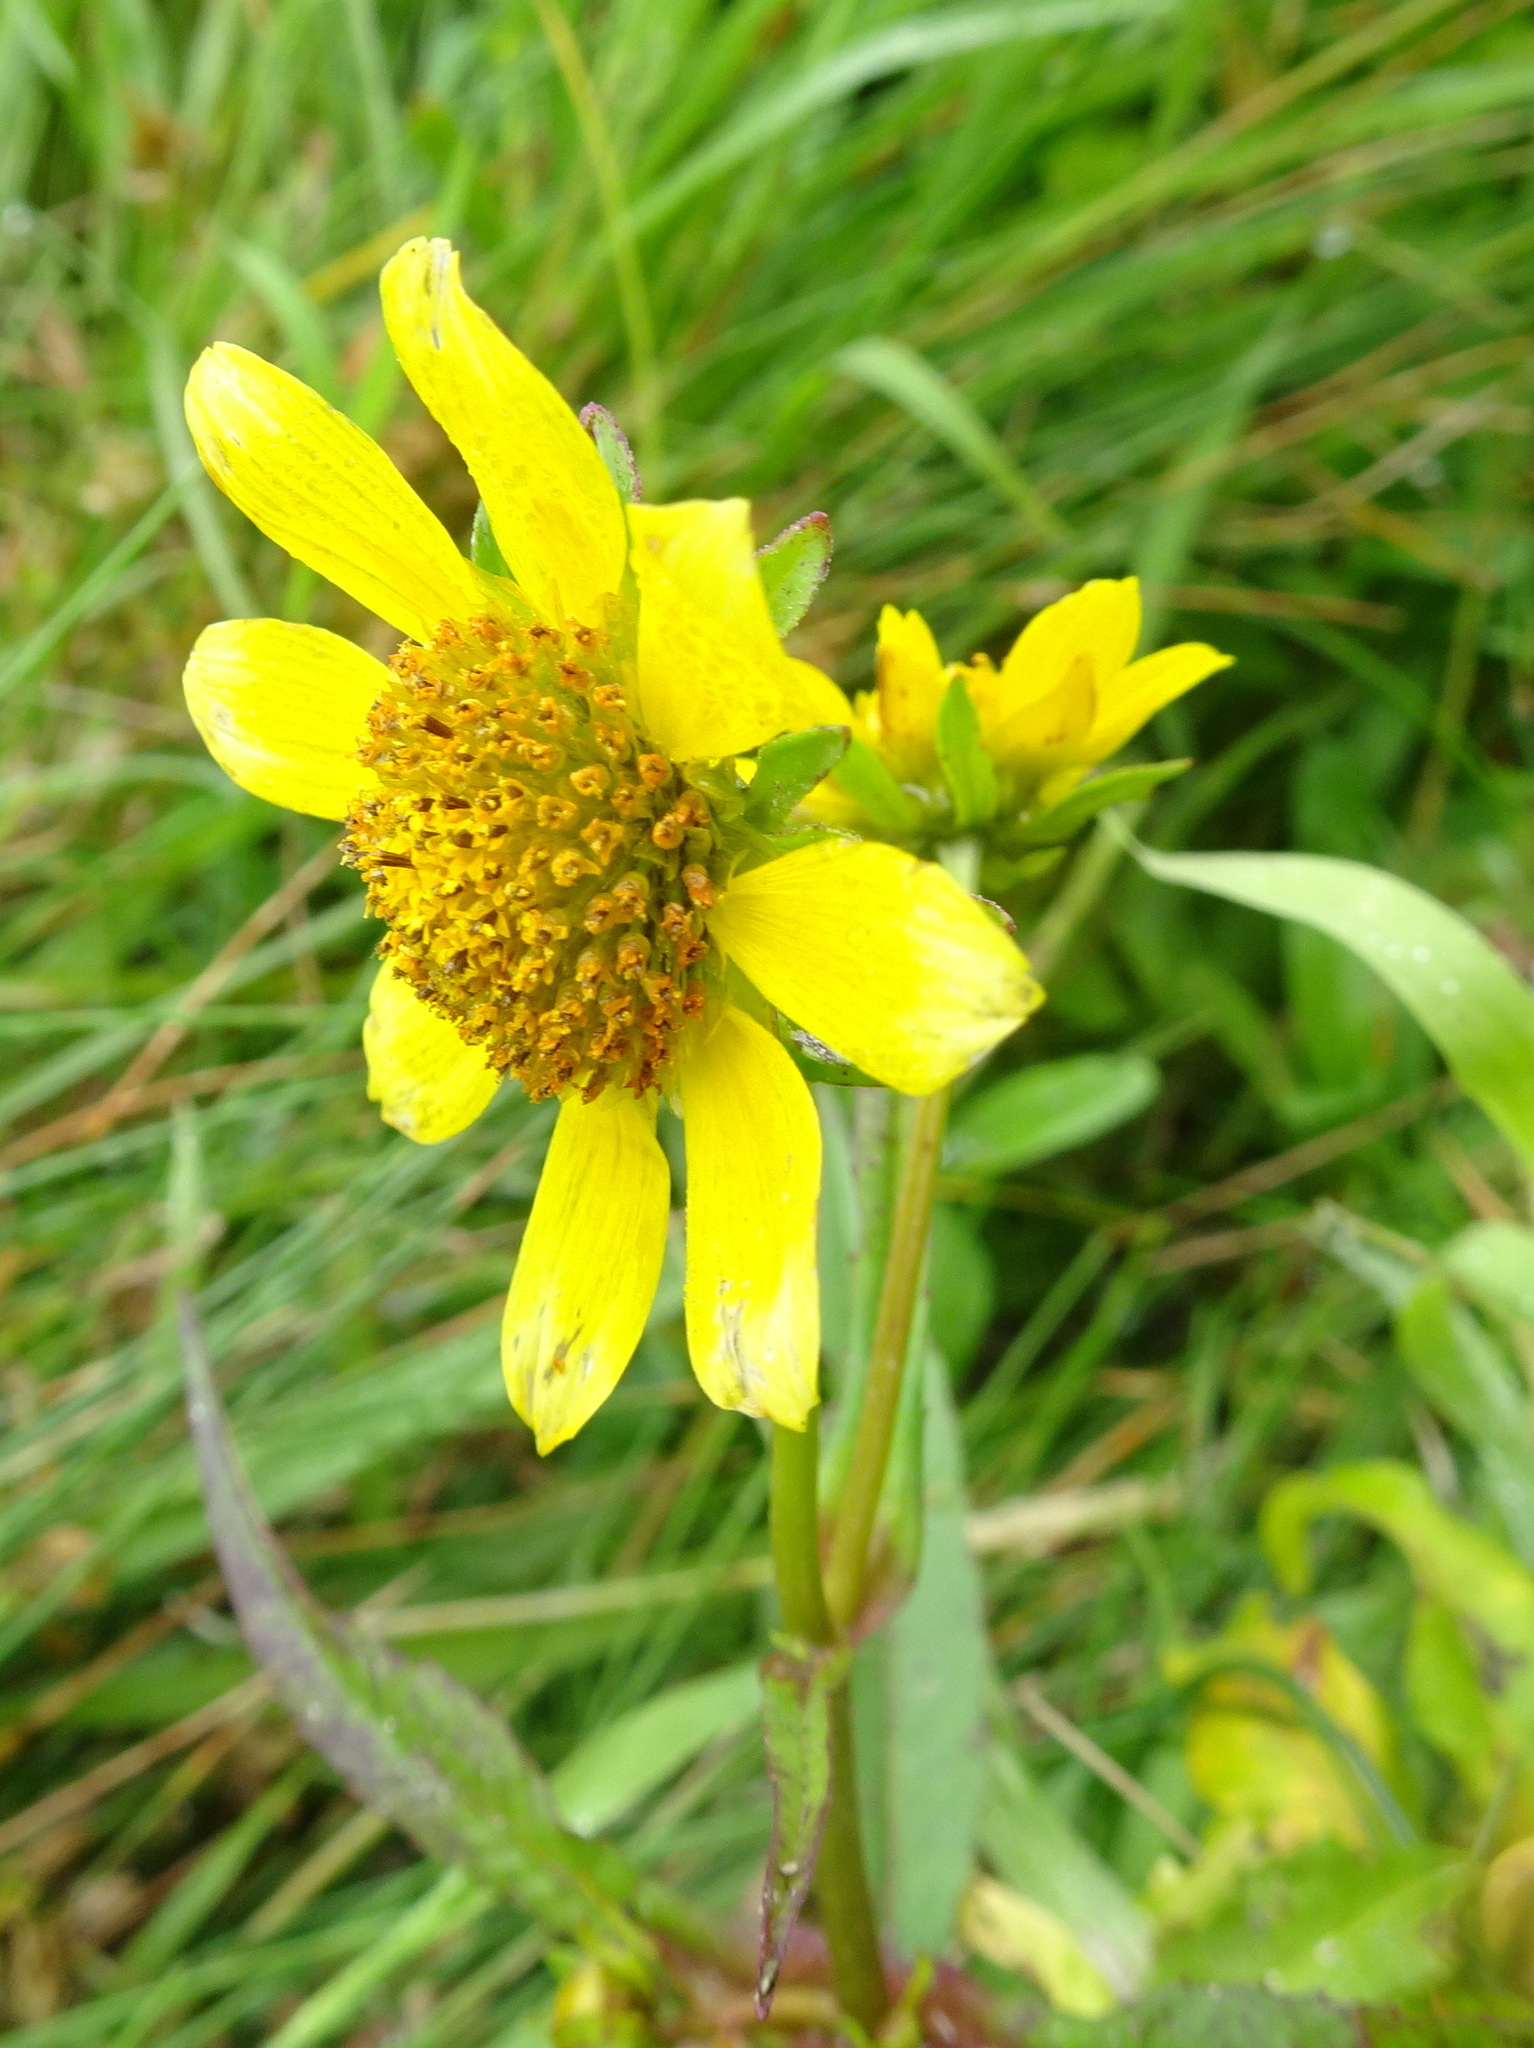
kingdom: Plantae
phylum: Tracheophyta
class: Magnoliopsida
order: Asterales
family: Asteraceae
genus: Bidens
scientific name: Bidens cernua
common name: Nodding bur-marigold
